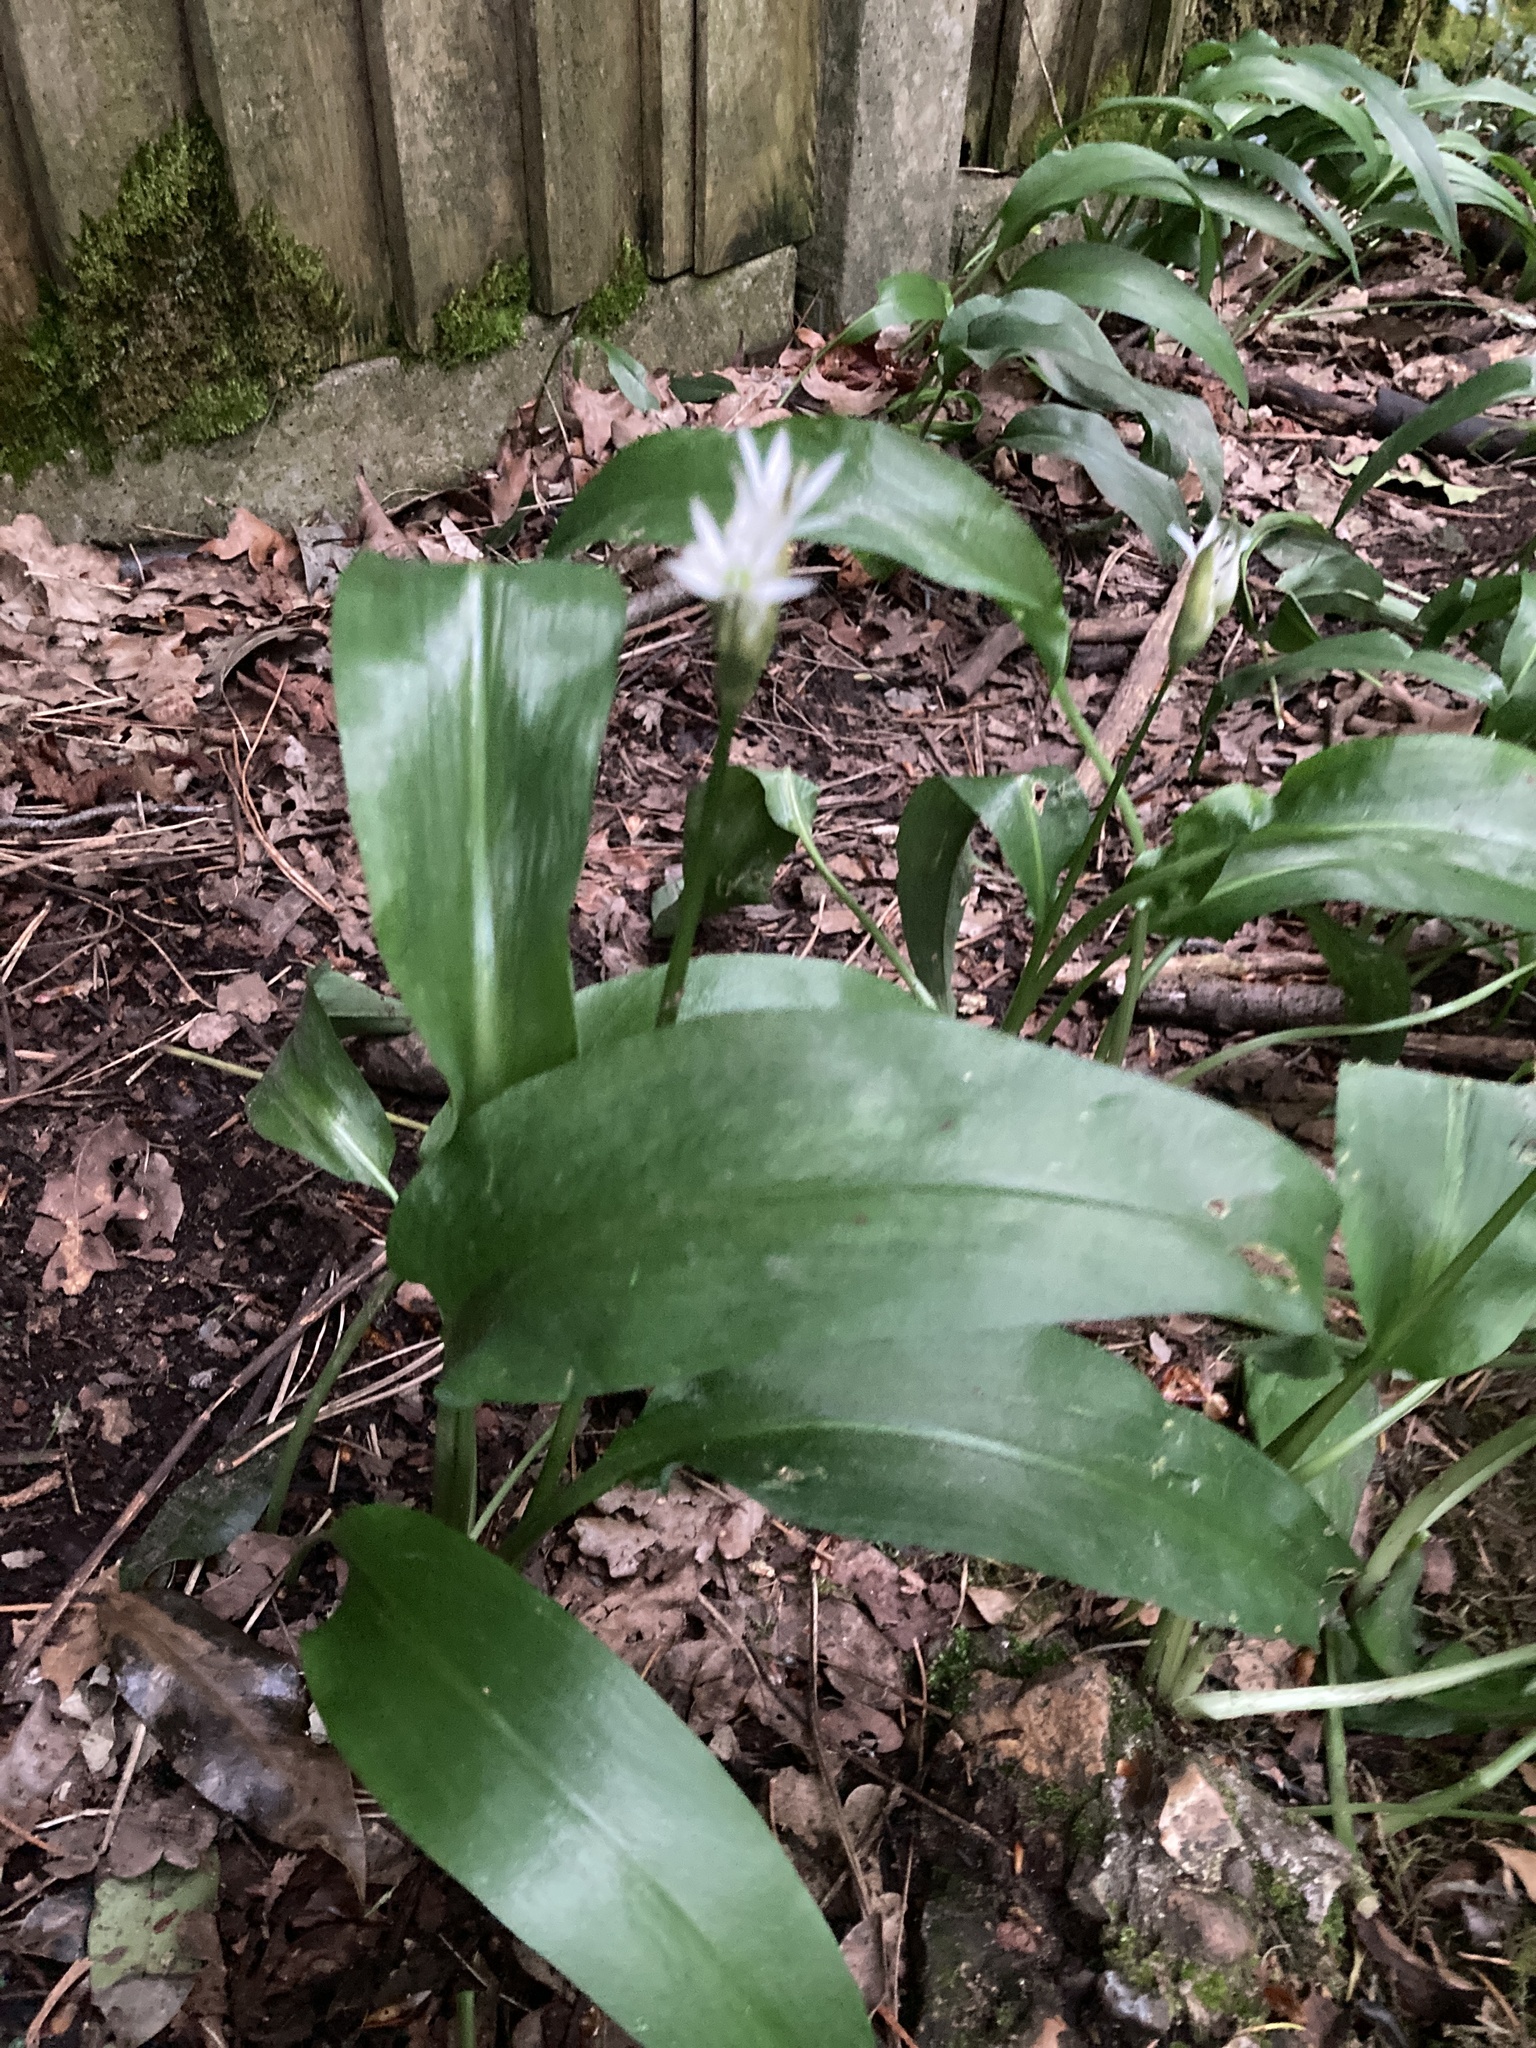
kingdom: Plantae
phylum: Tracheophyta
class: Liliopsida
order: Asparagales
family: Amaryllidaceae
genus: Allium
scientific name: Allium ursinum
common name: Ramsons
